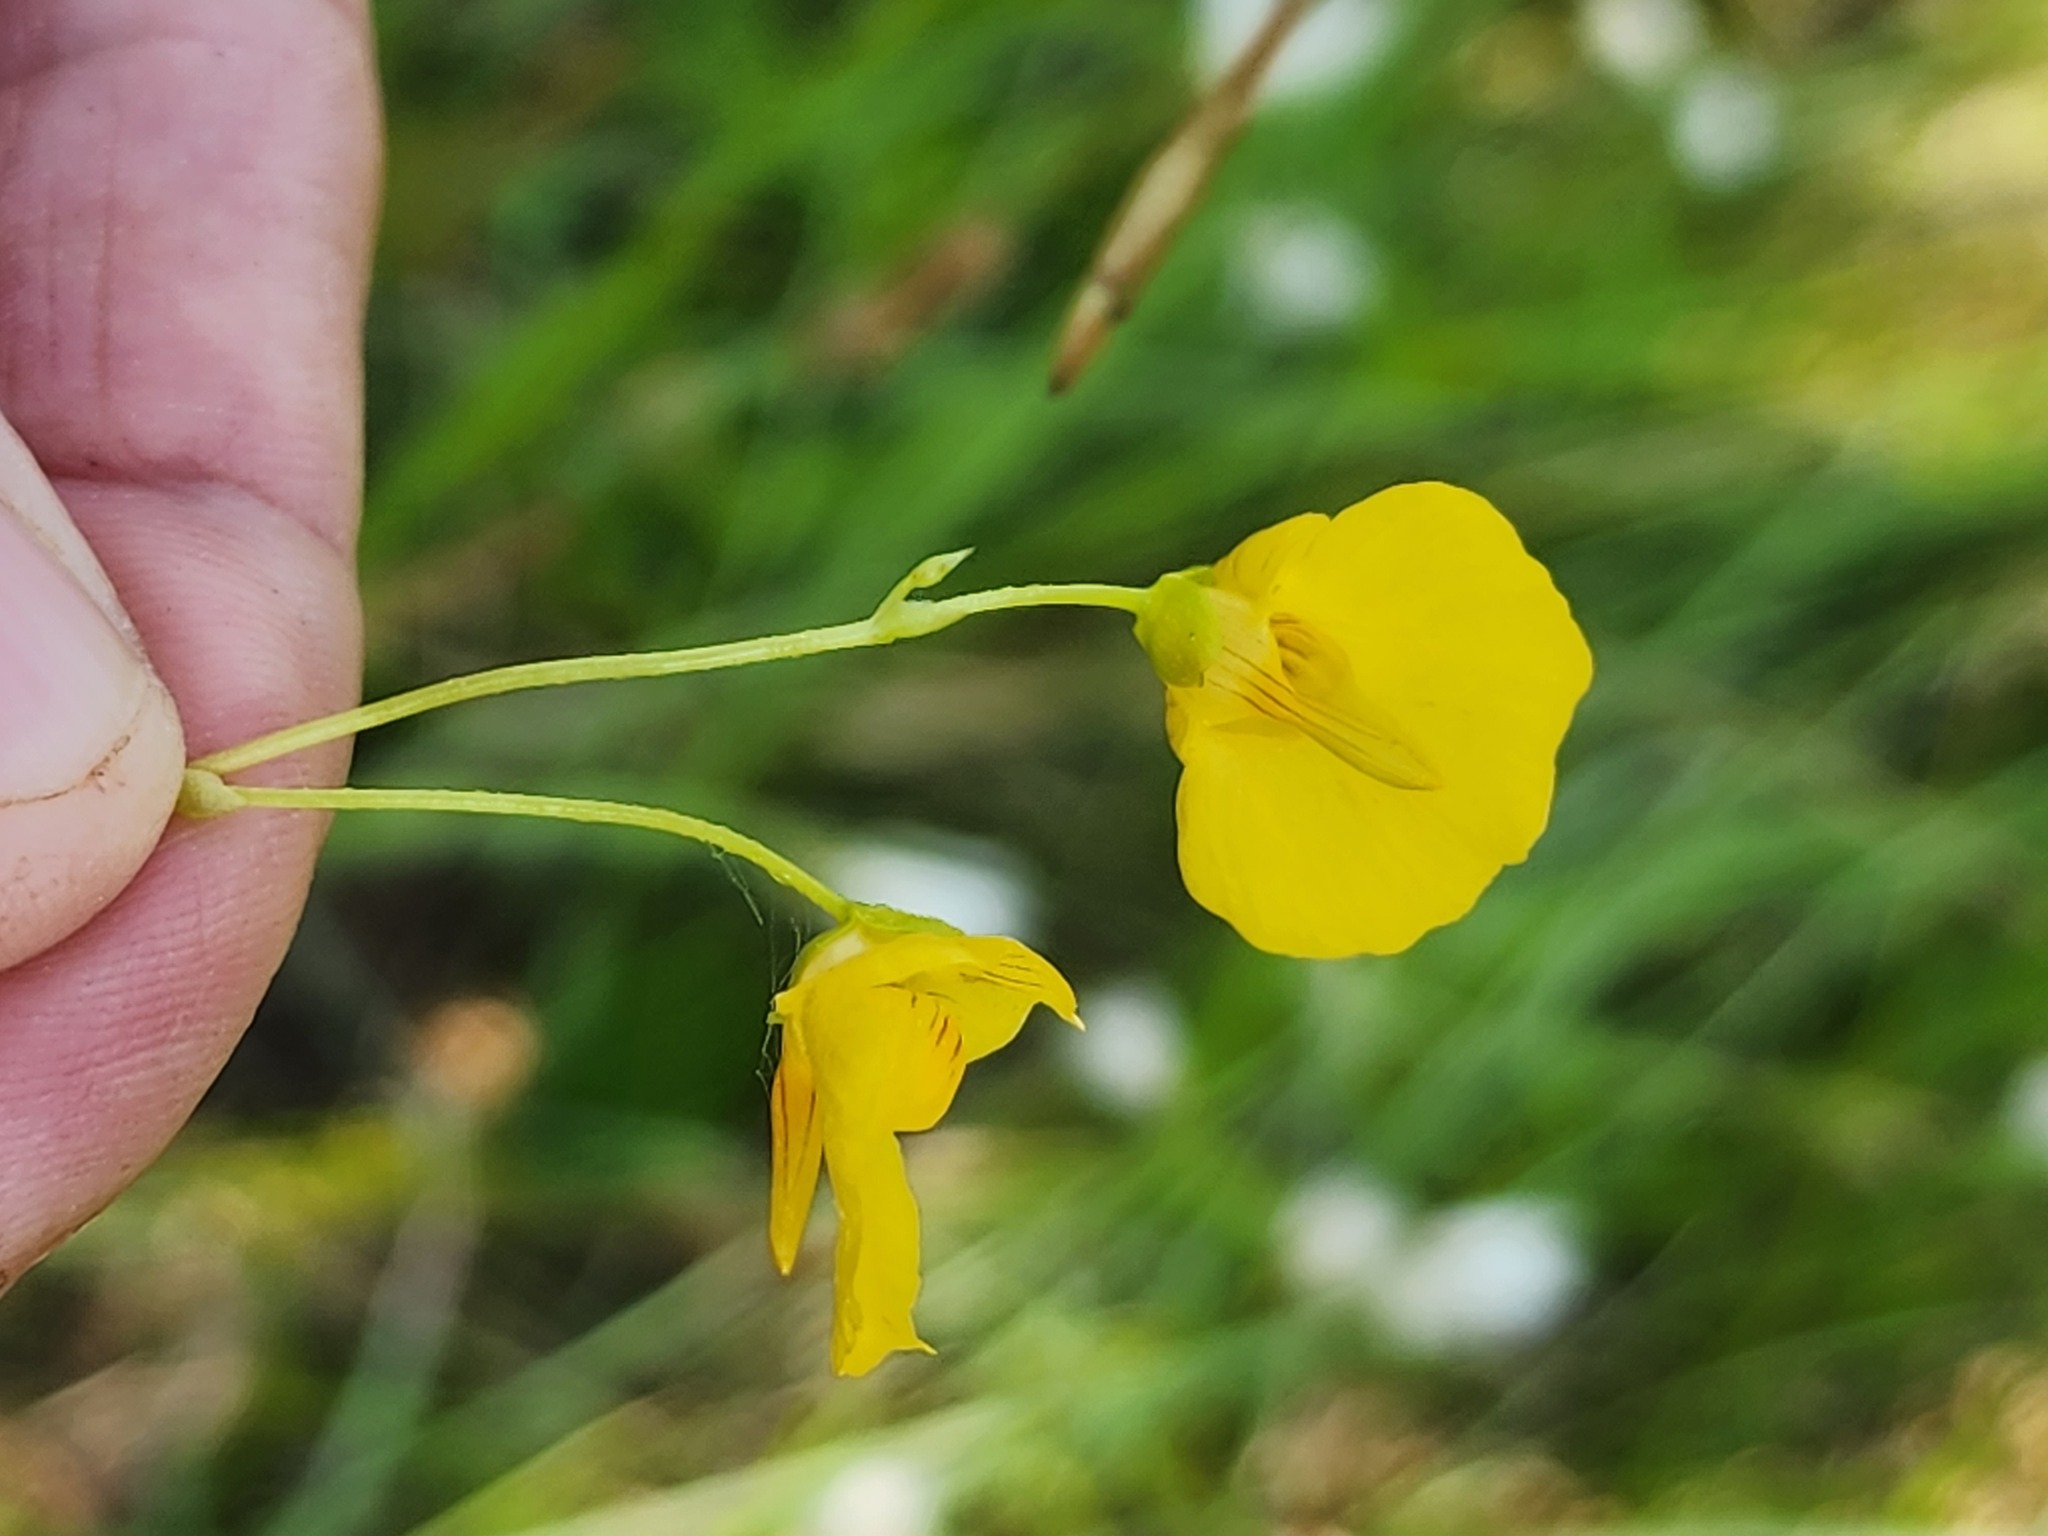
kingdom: Plantae
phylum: Tracheophyta
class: Magnoliopsida
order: Lamiales
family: Lentibulariaceae
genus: Utricularia
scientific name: Utricularia intermedia
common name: Intermediate bladderwort
